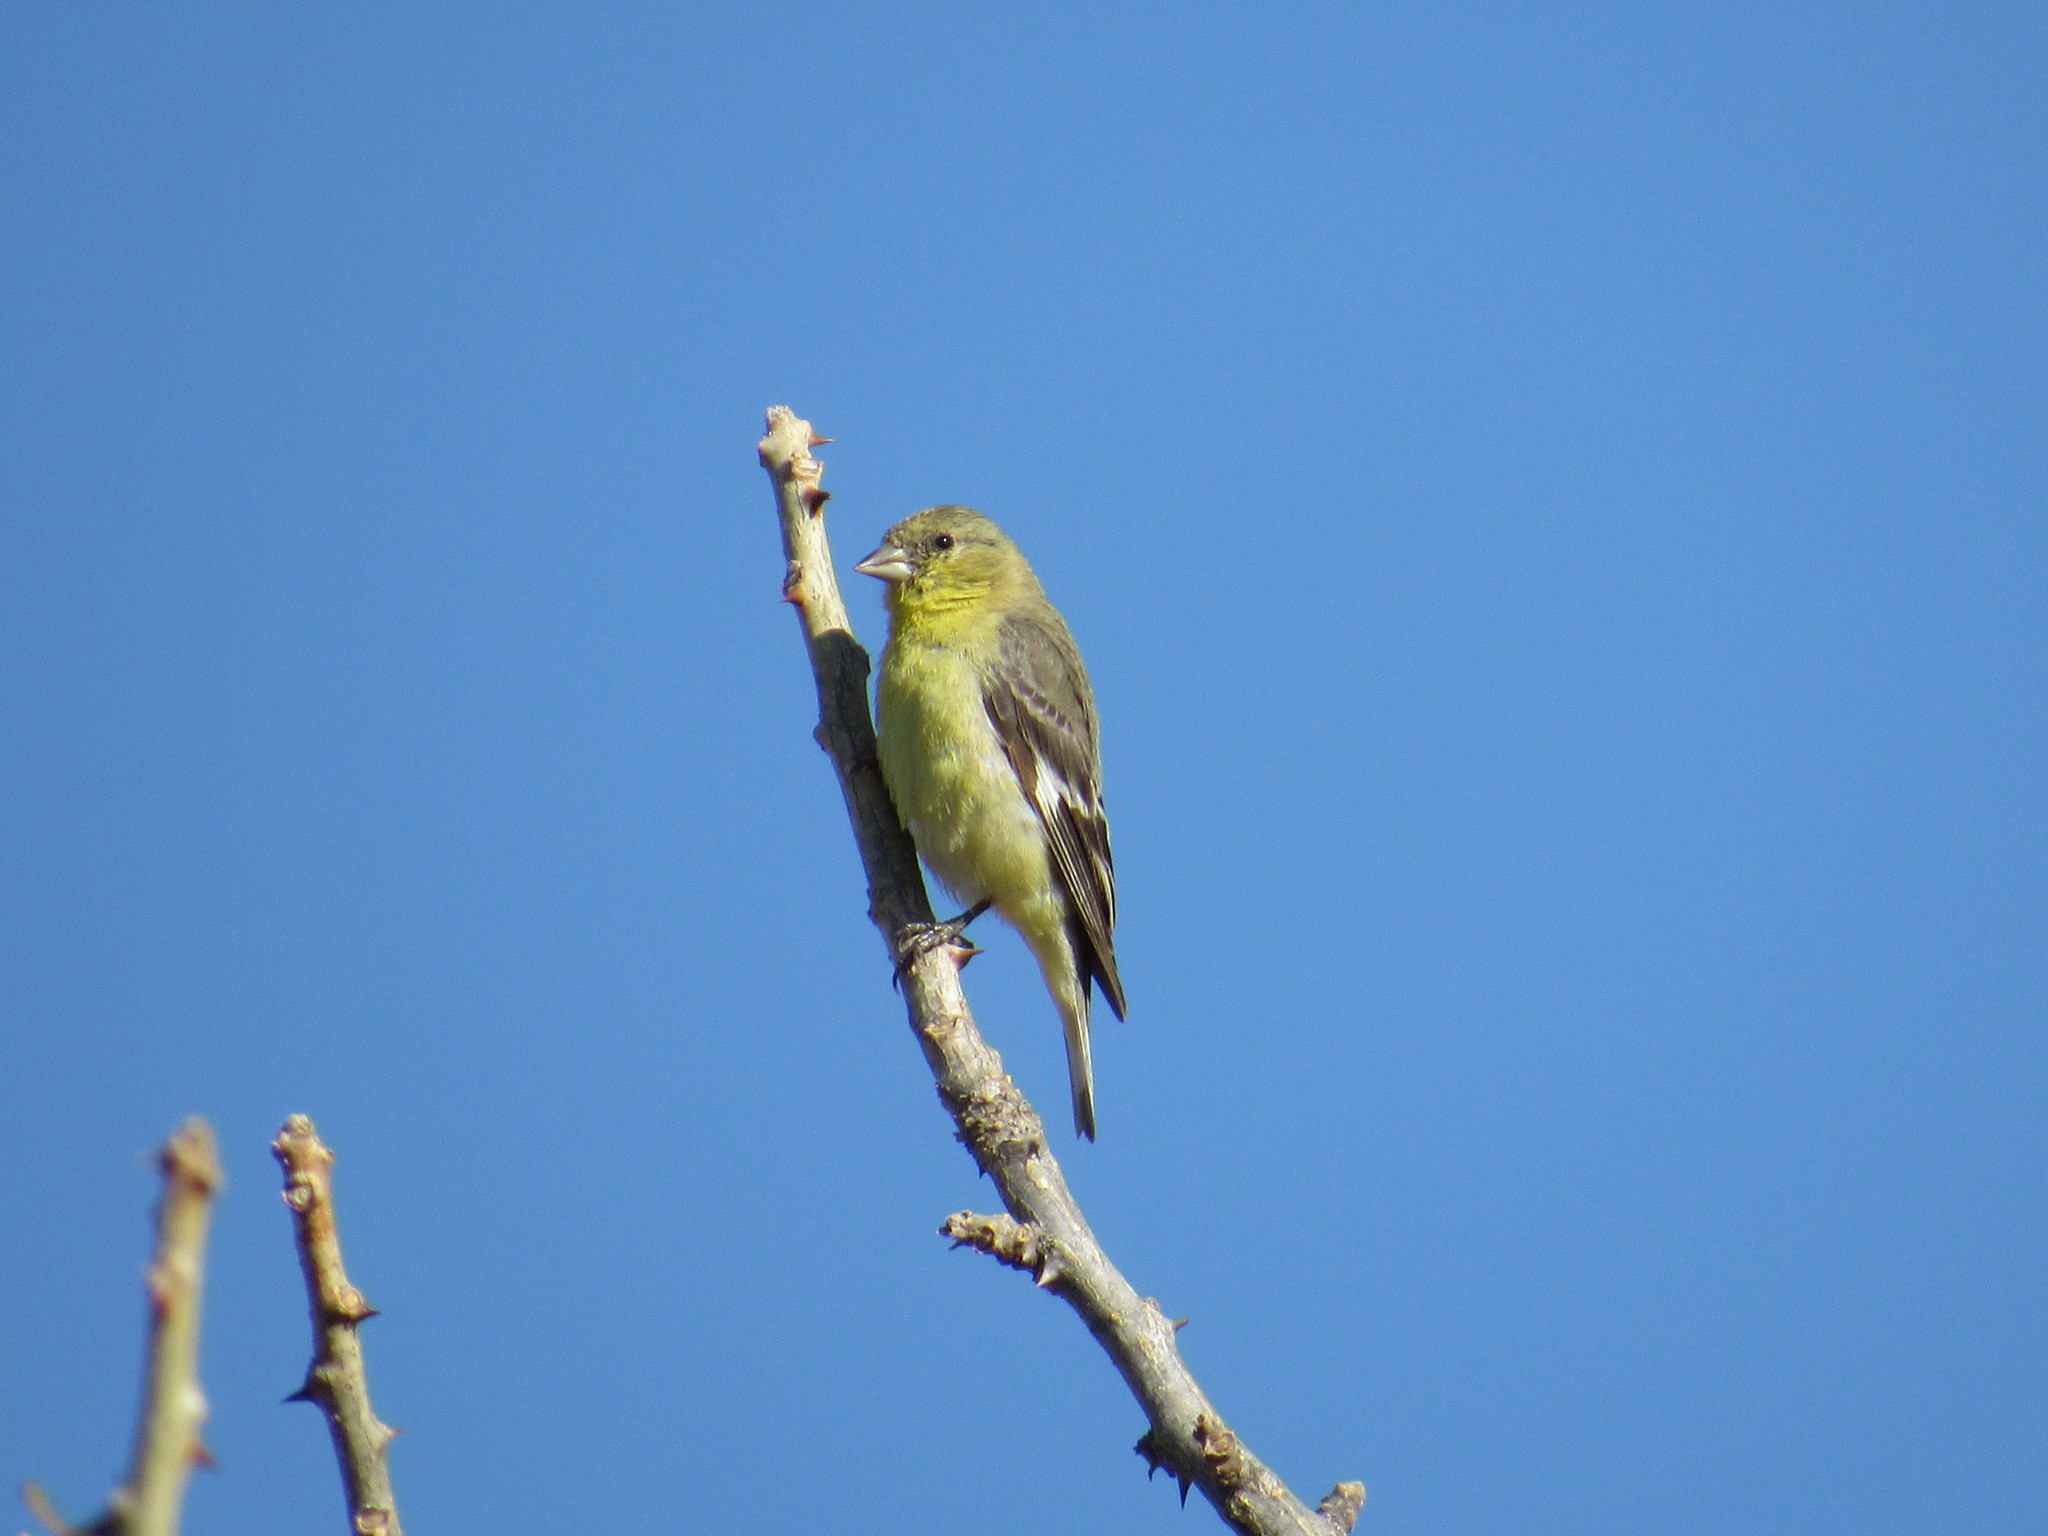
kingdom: Animalia
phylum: Chordata
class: Aves
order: Passeriformes
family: Fringillidae
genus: Spinus
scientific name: Spinus psaltria
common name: Lesser goldfinch
